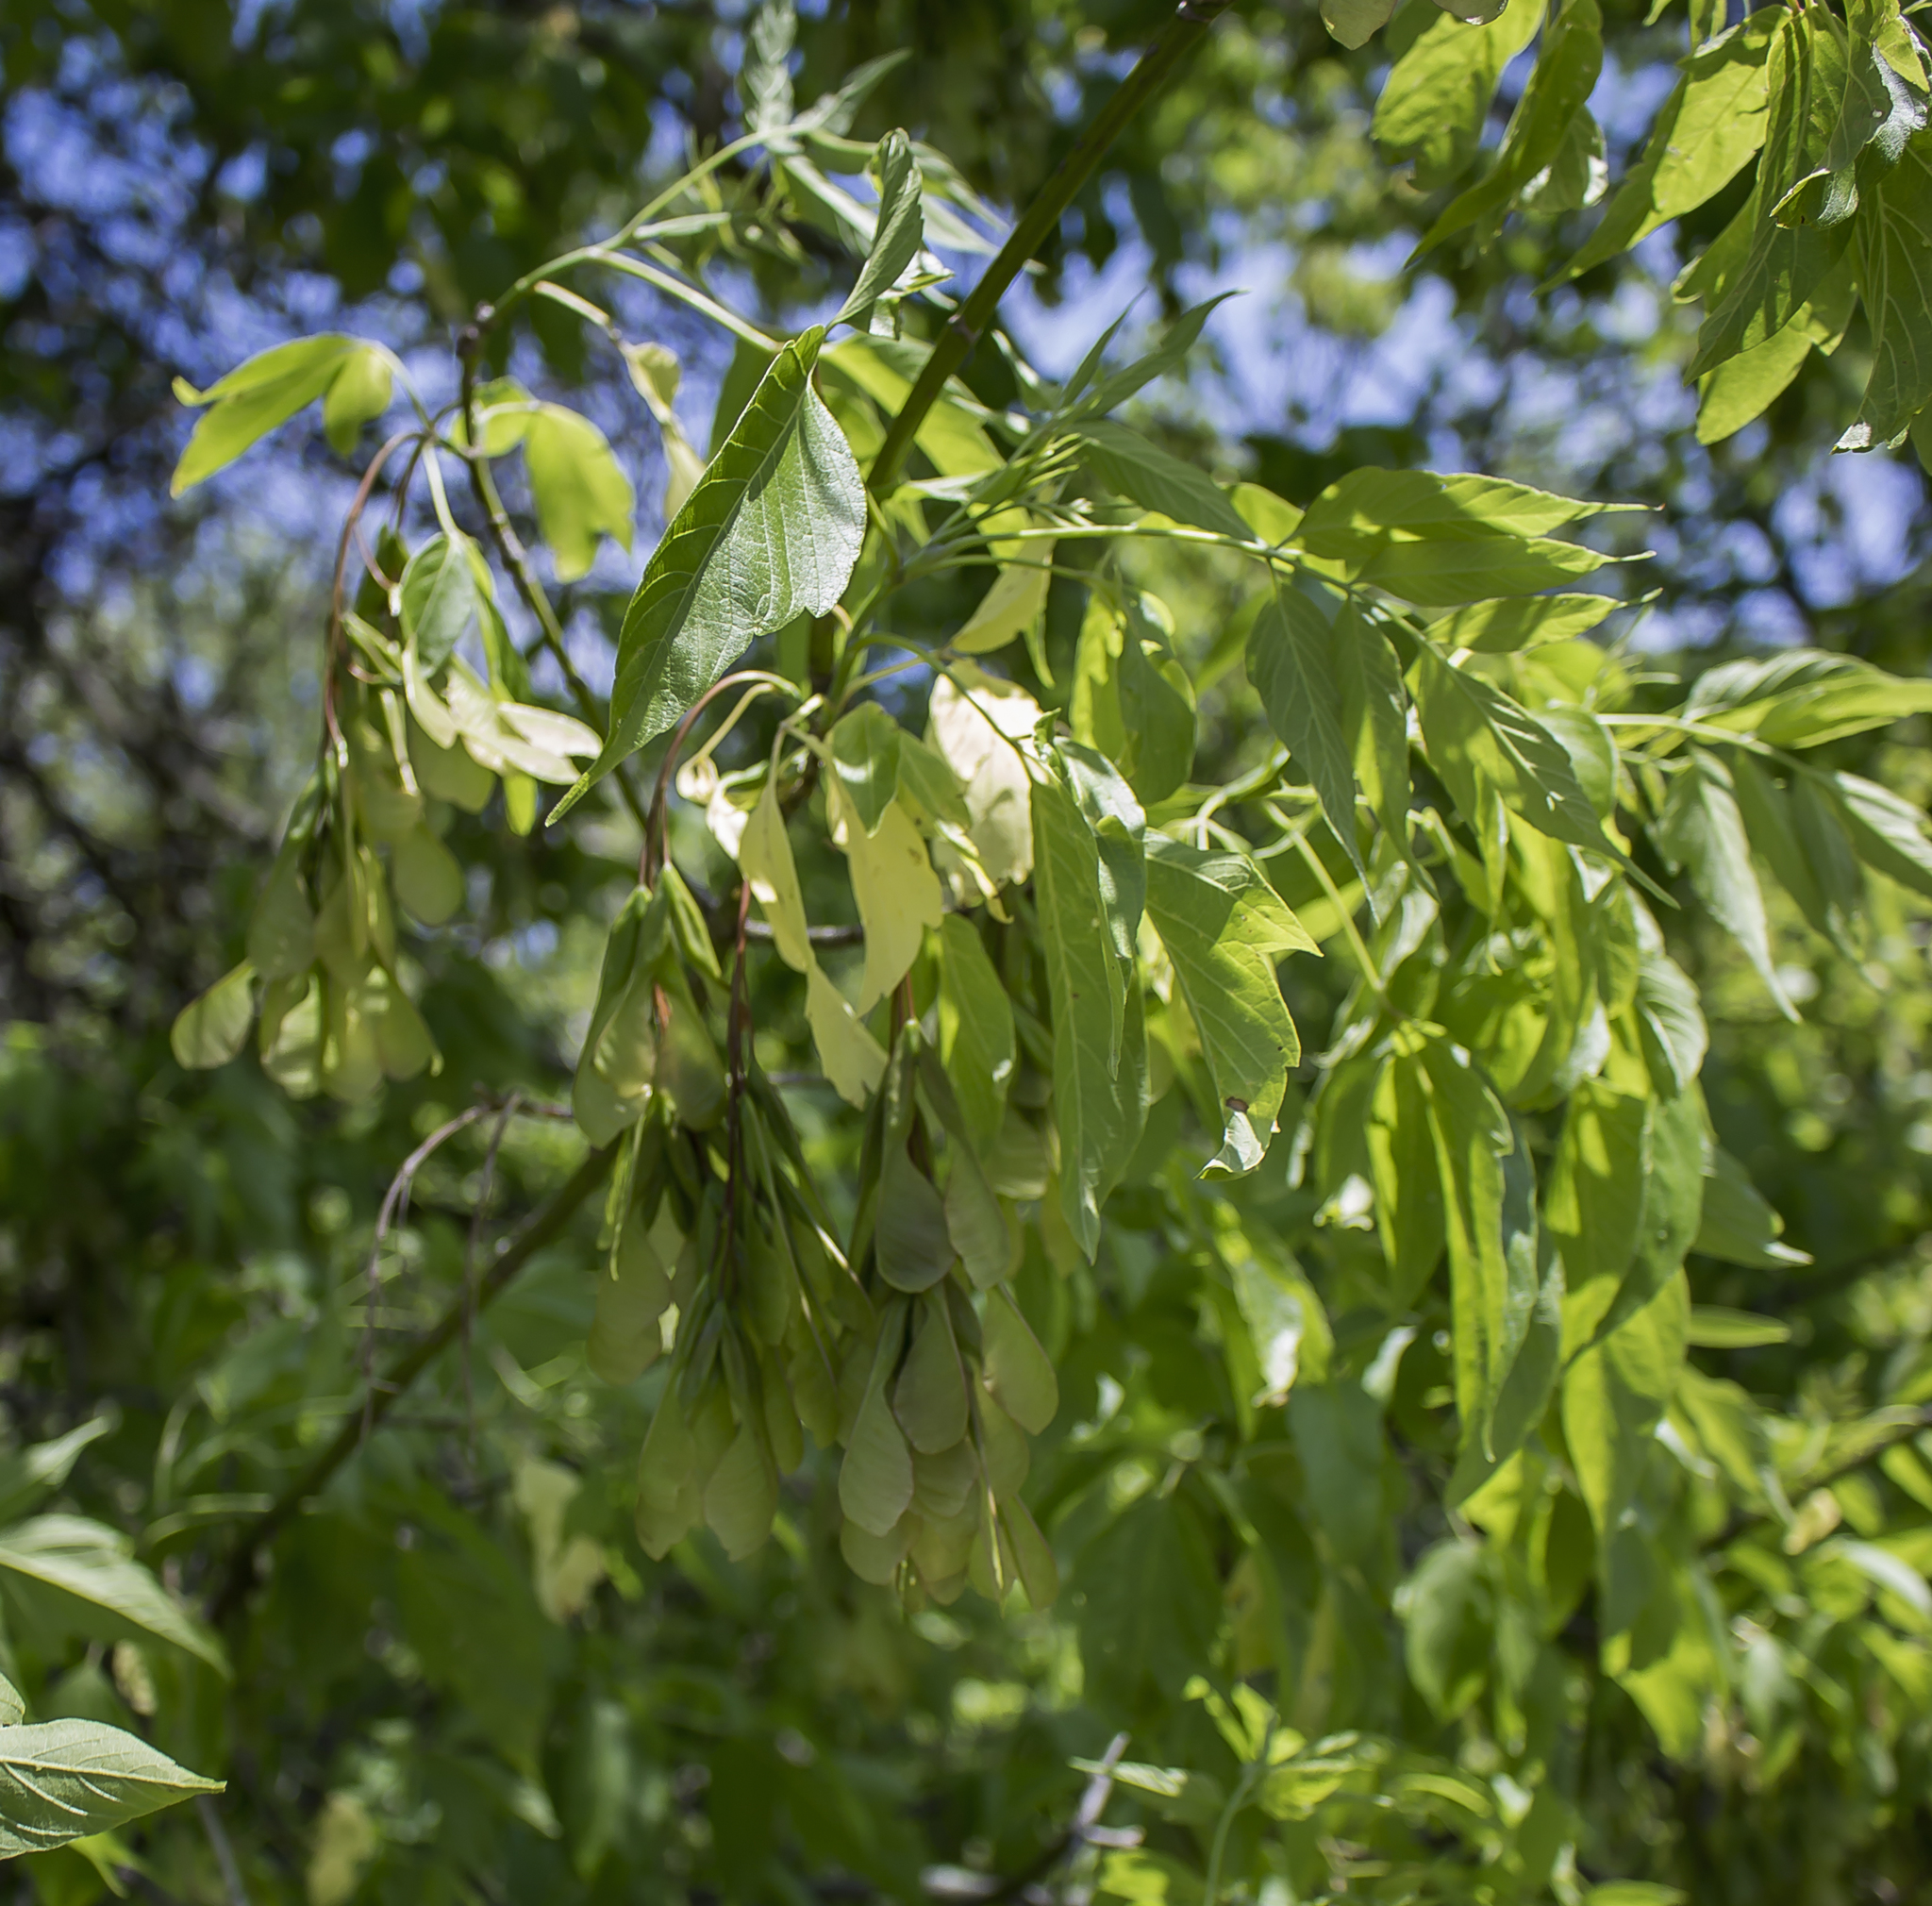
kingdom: Plantae
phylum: Tracheophyta
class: Magnoliopsida
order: Sapindales
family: Sapindaceae
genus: Acer
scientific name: Acer negundo
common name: Ashleaf maple
